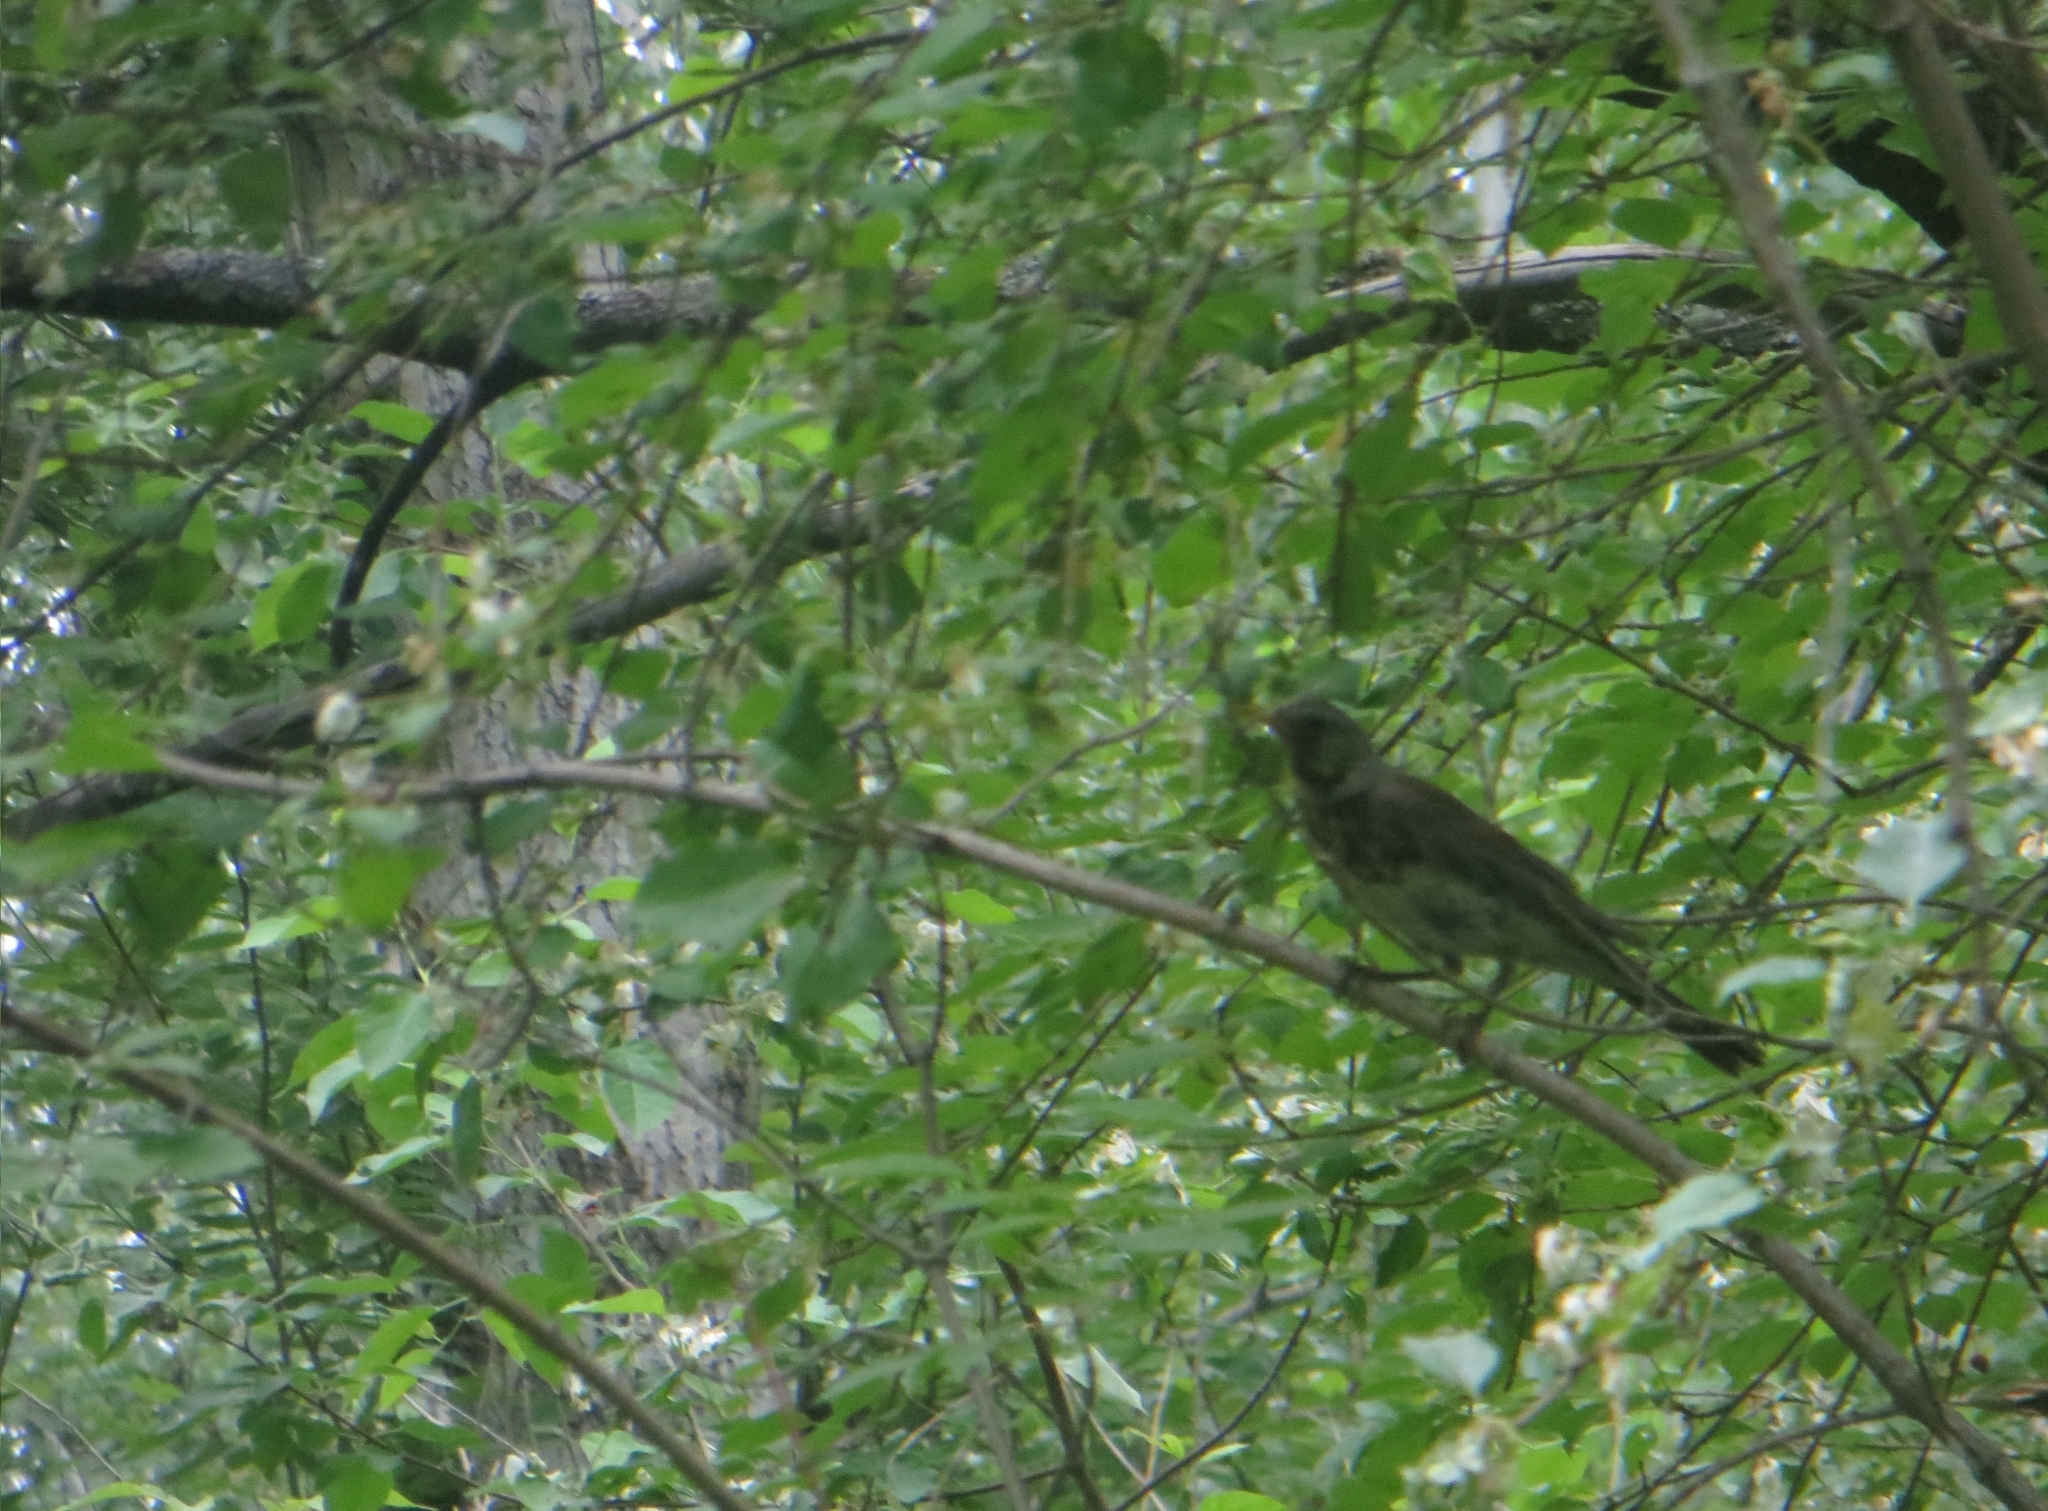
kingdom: Animalia
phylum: Chordata
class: Aves
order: Passeriformes
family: Turdidae
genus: Turdus
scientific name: Turdus pilaris
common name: Fieldfare
